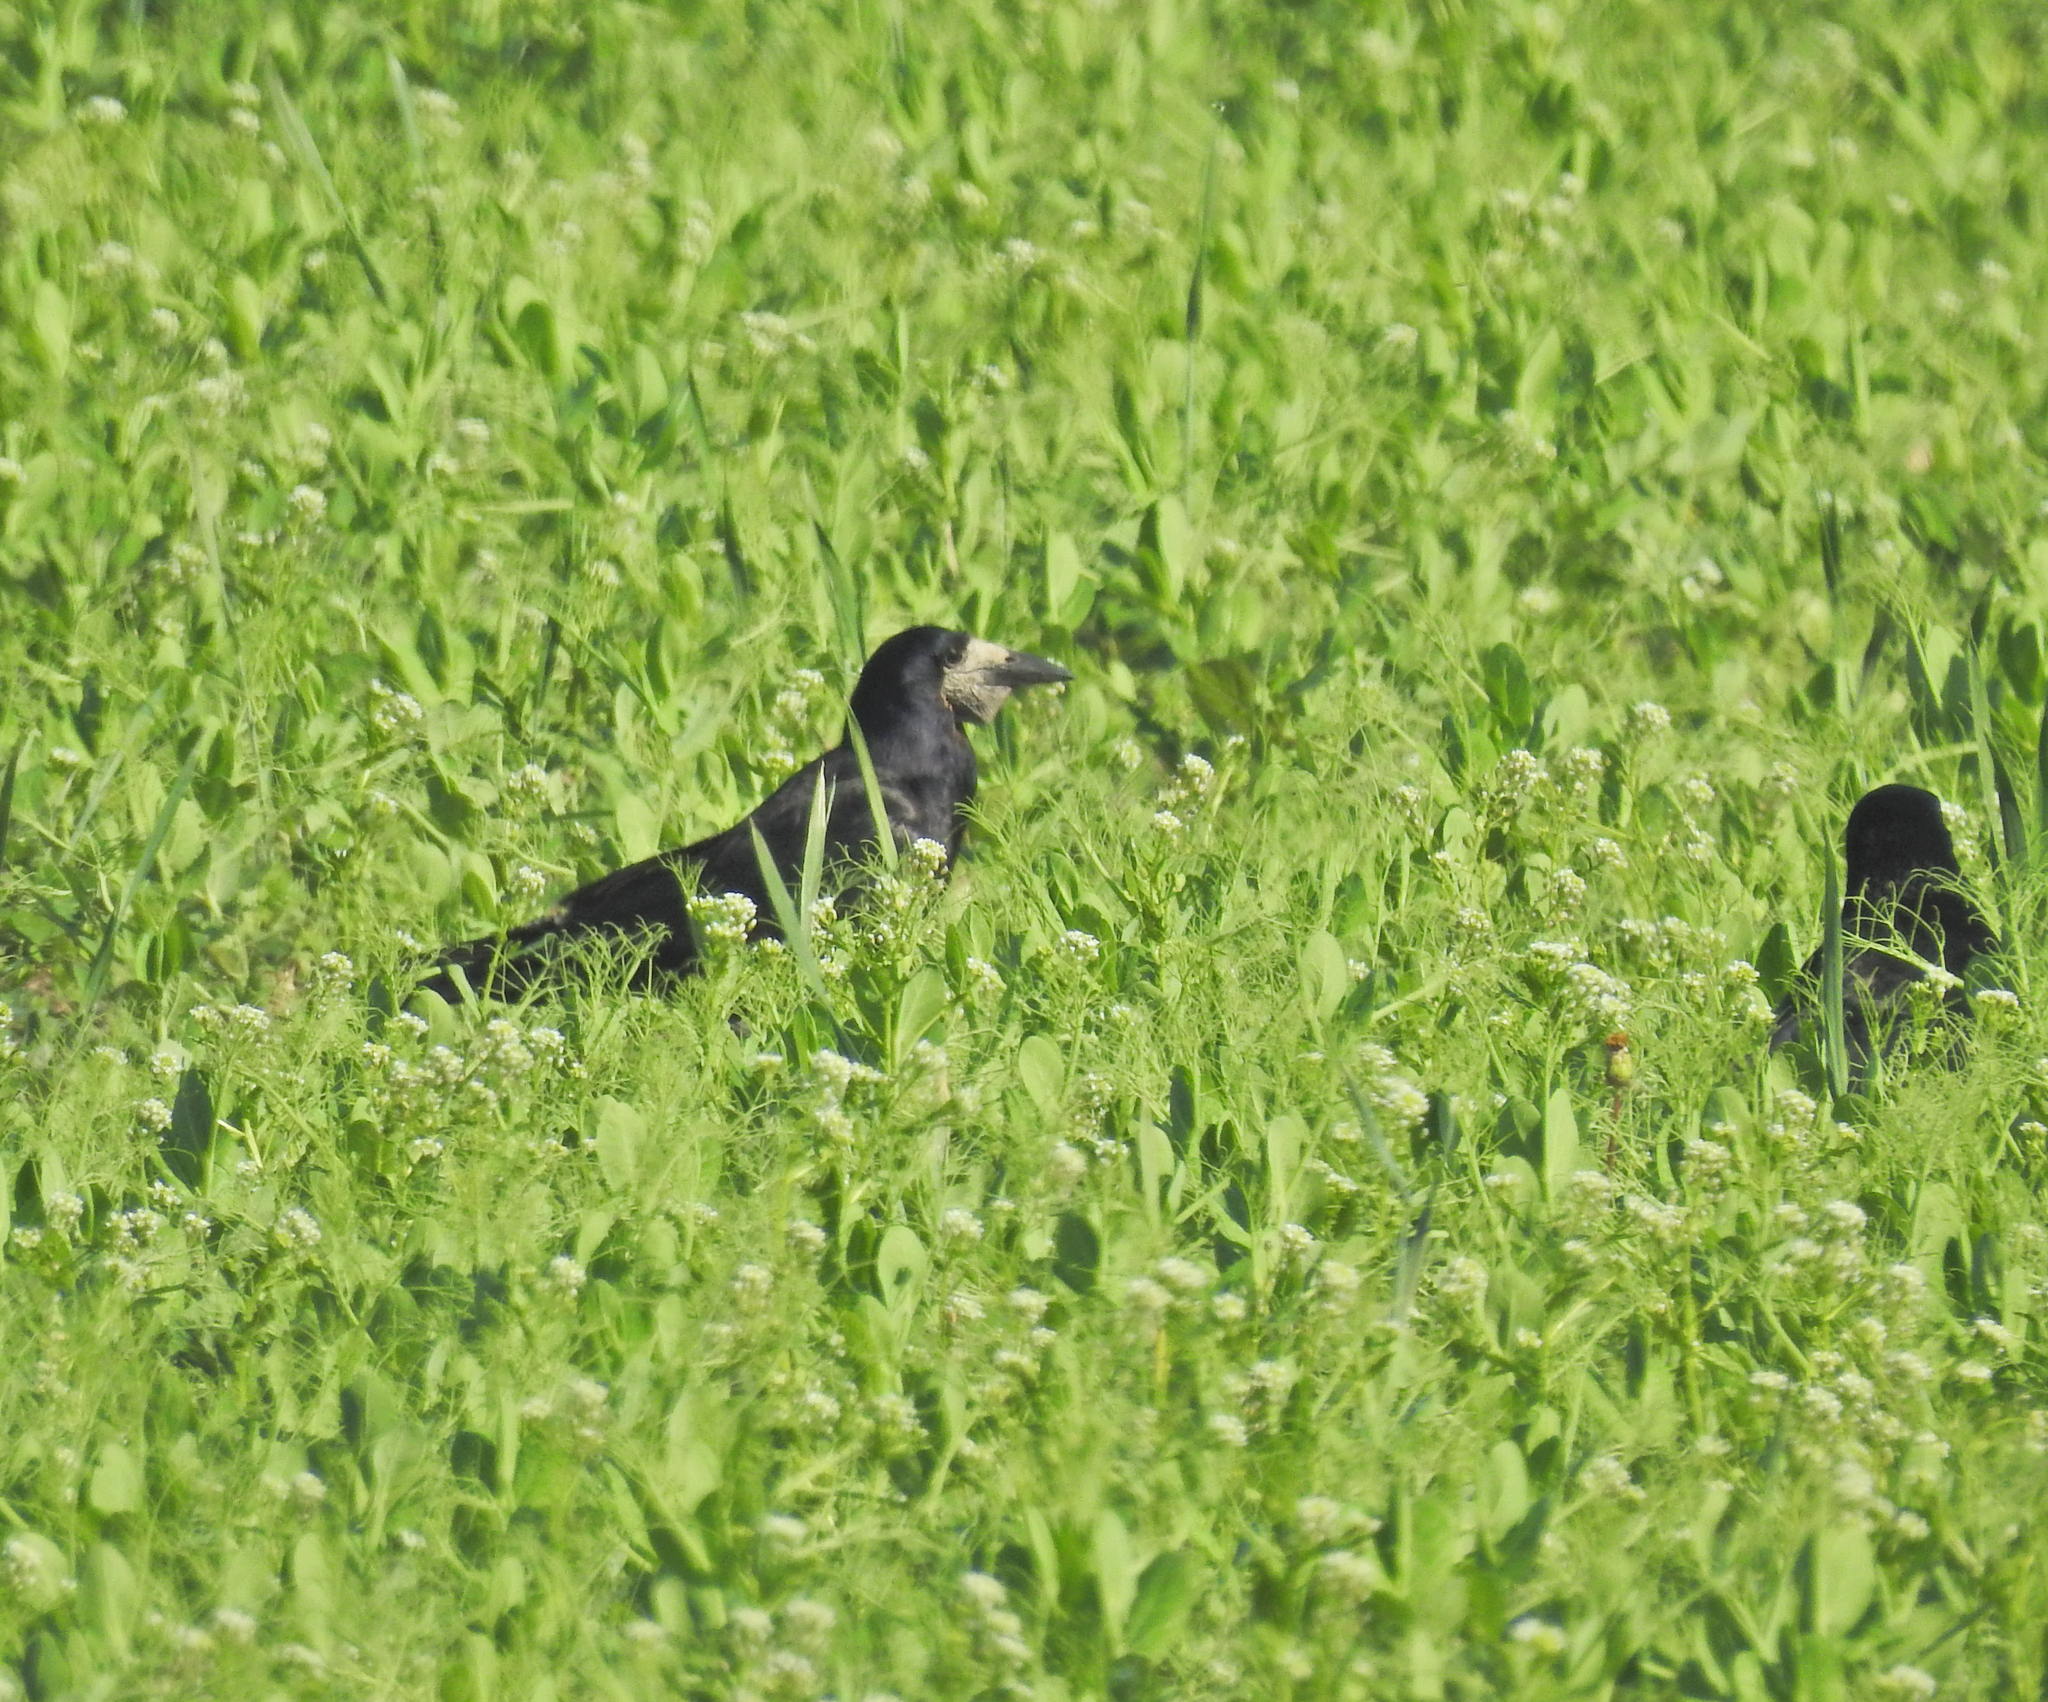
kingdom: Animalia
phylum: Chordata
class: Aves
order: Passeriformes
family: Corvidae
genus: Corvus
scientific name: Corvus frugilegus
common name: Rook
